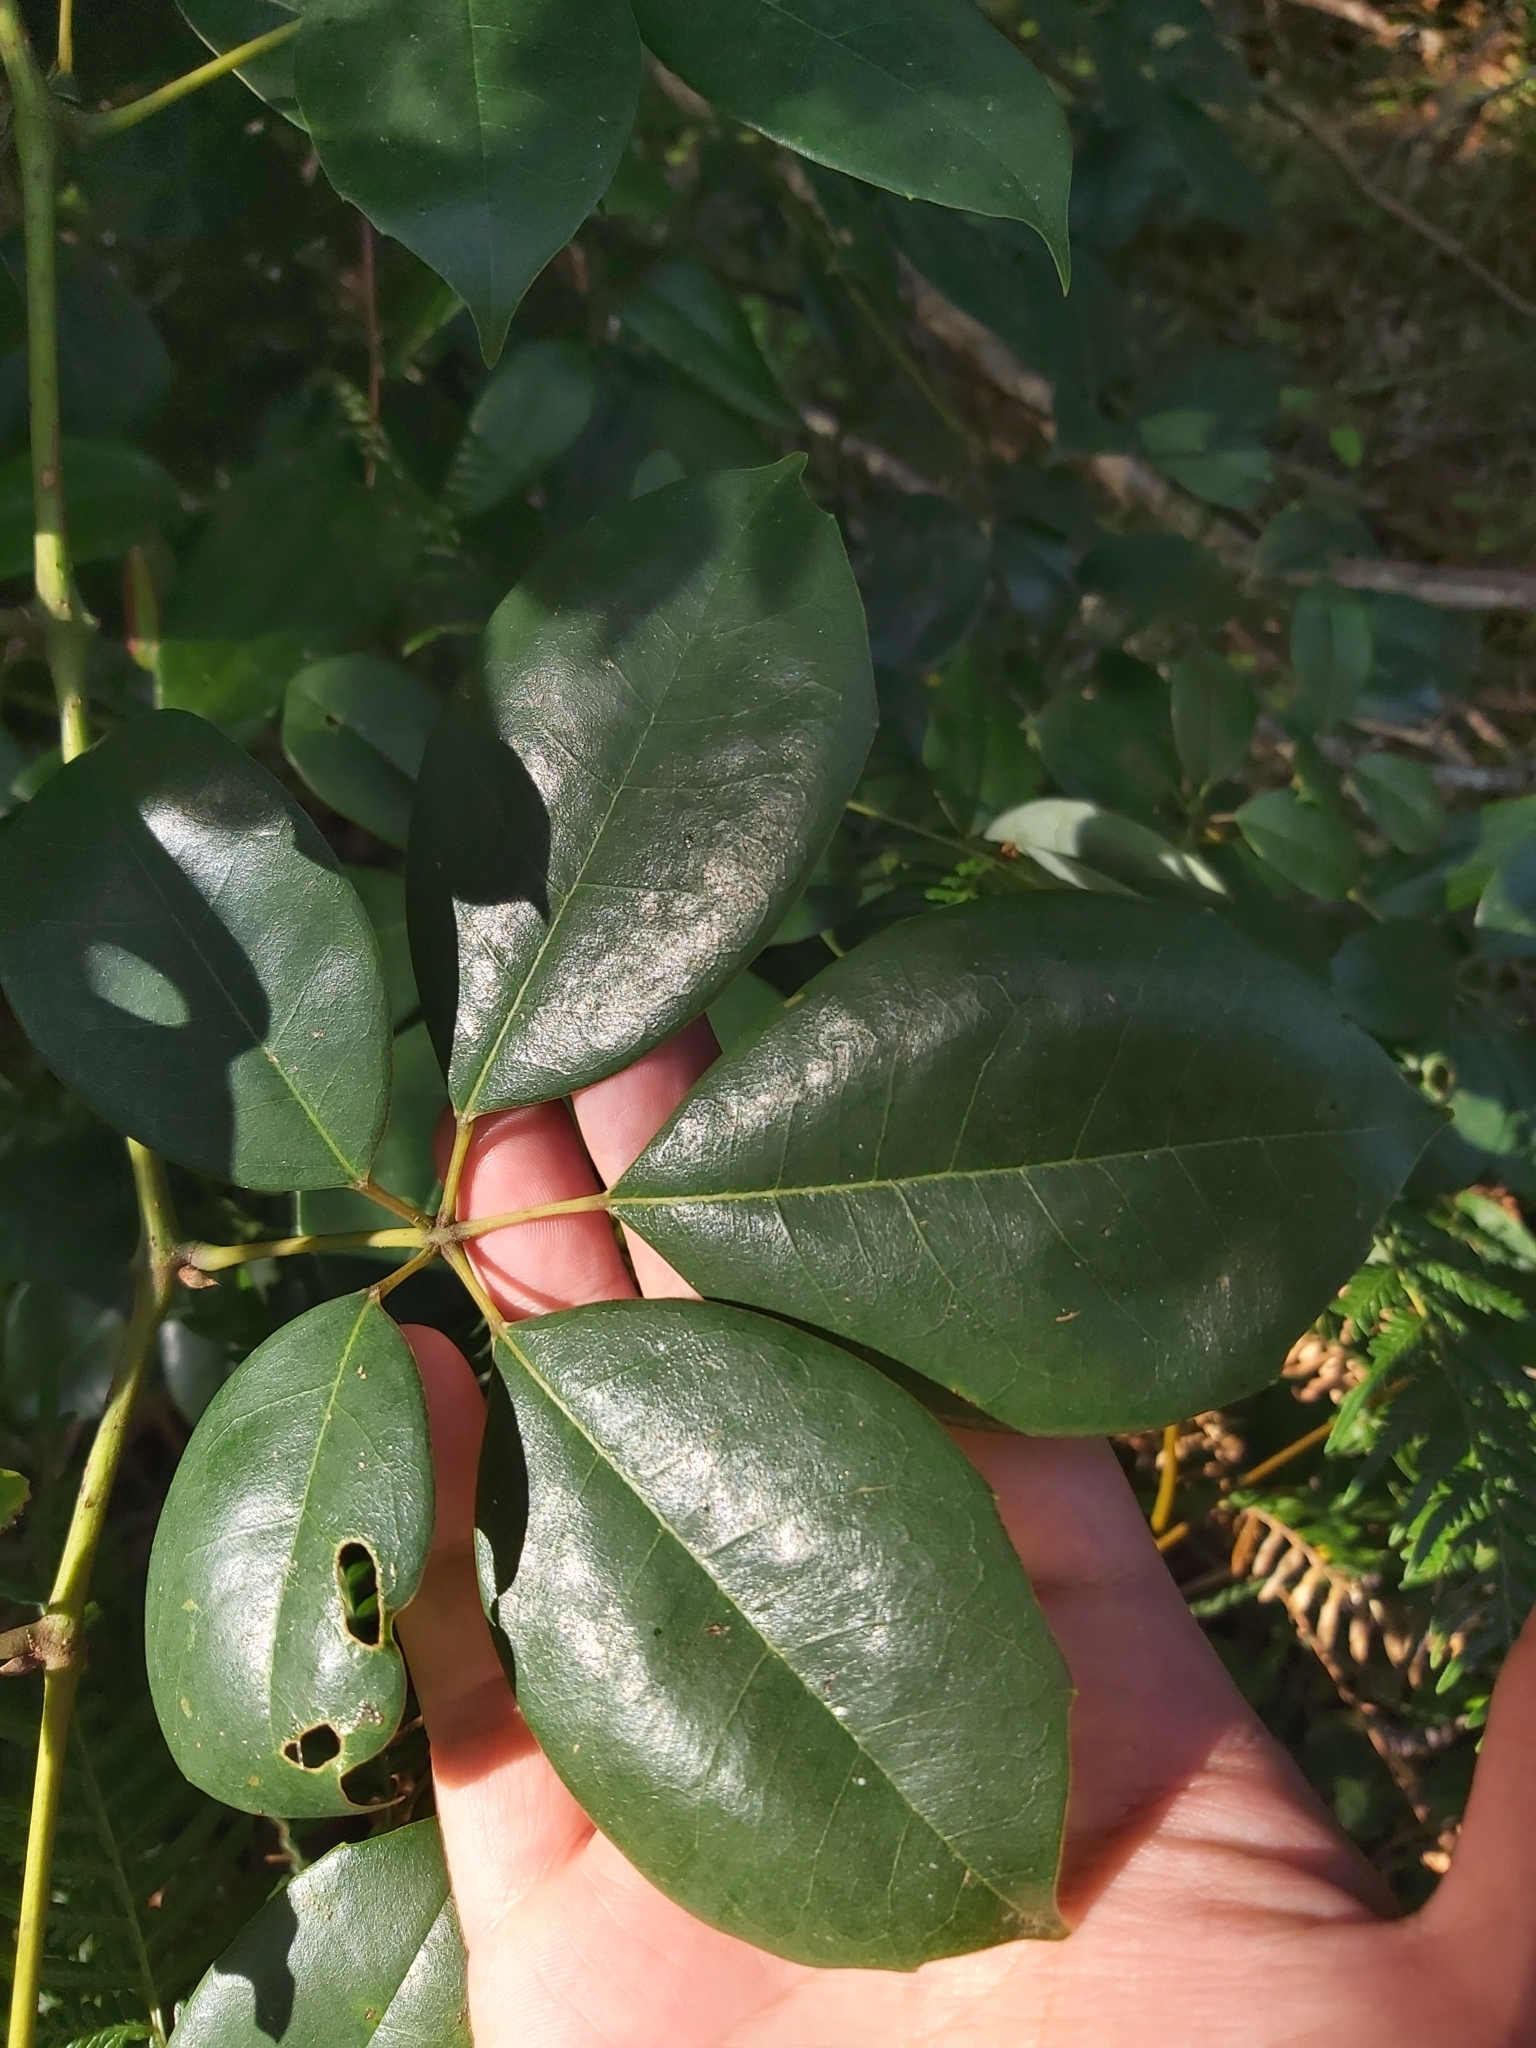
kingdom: Plantae
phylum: Tracheophyta
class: Magnoliopsida
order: Vitales
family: Vitaceae
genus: Nothocissus
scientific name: Nothocissus hypoglauca
